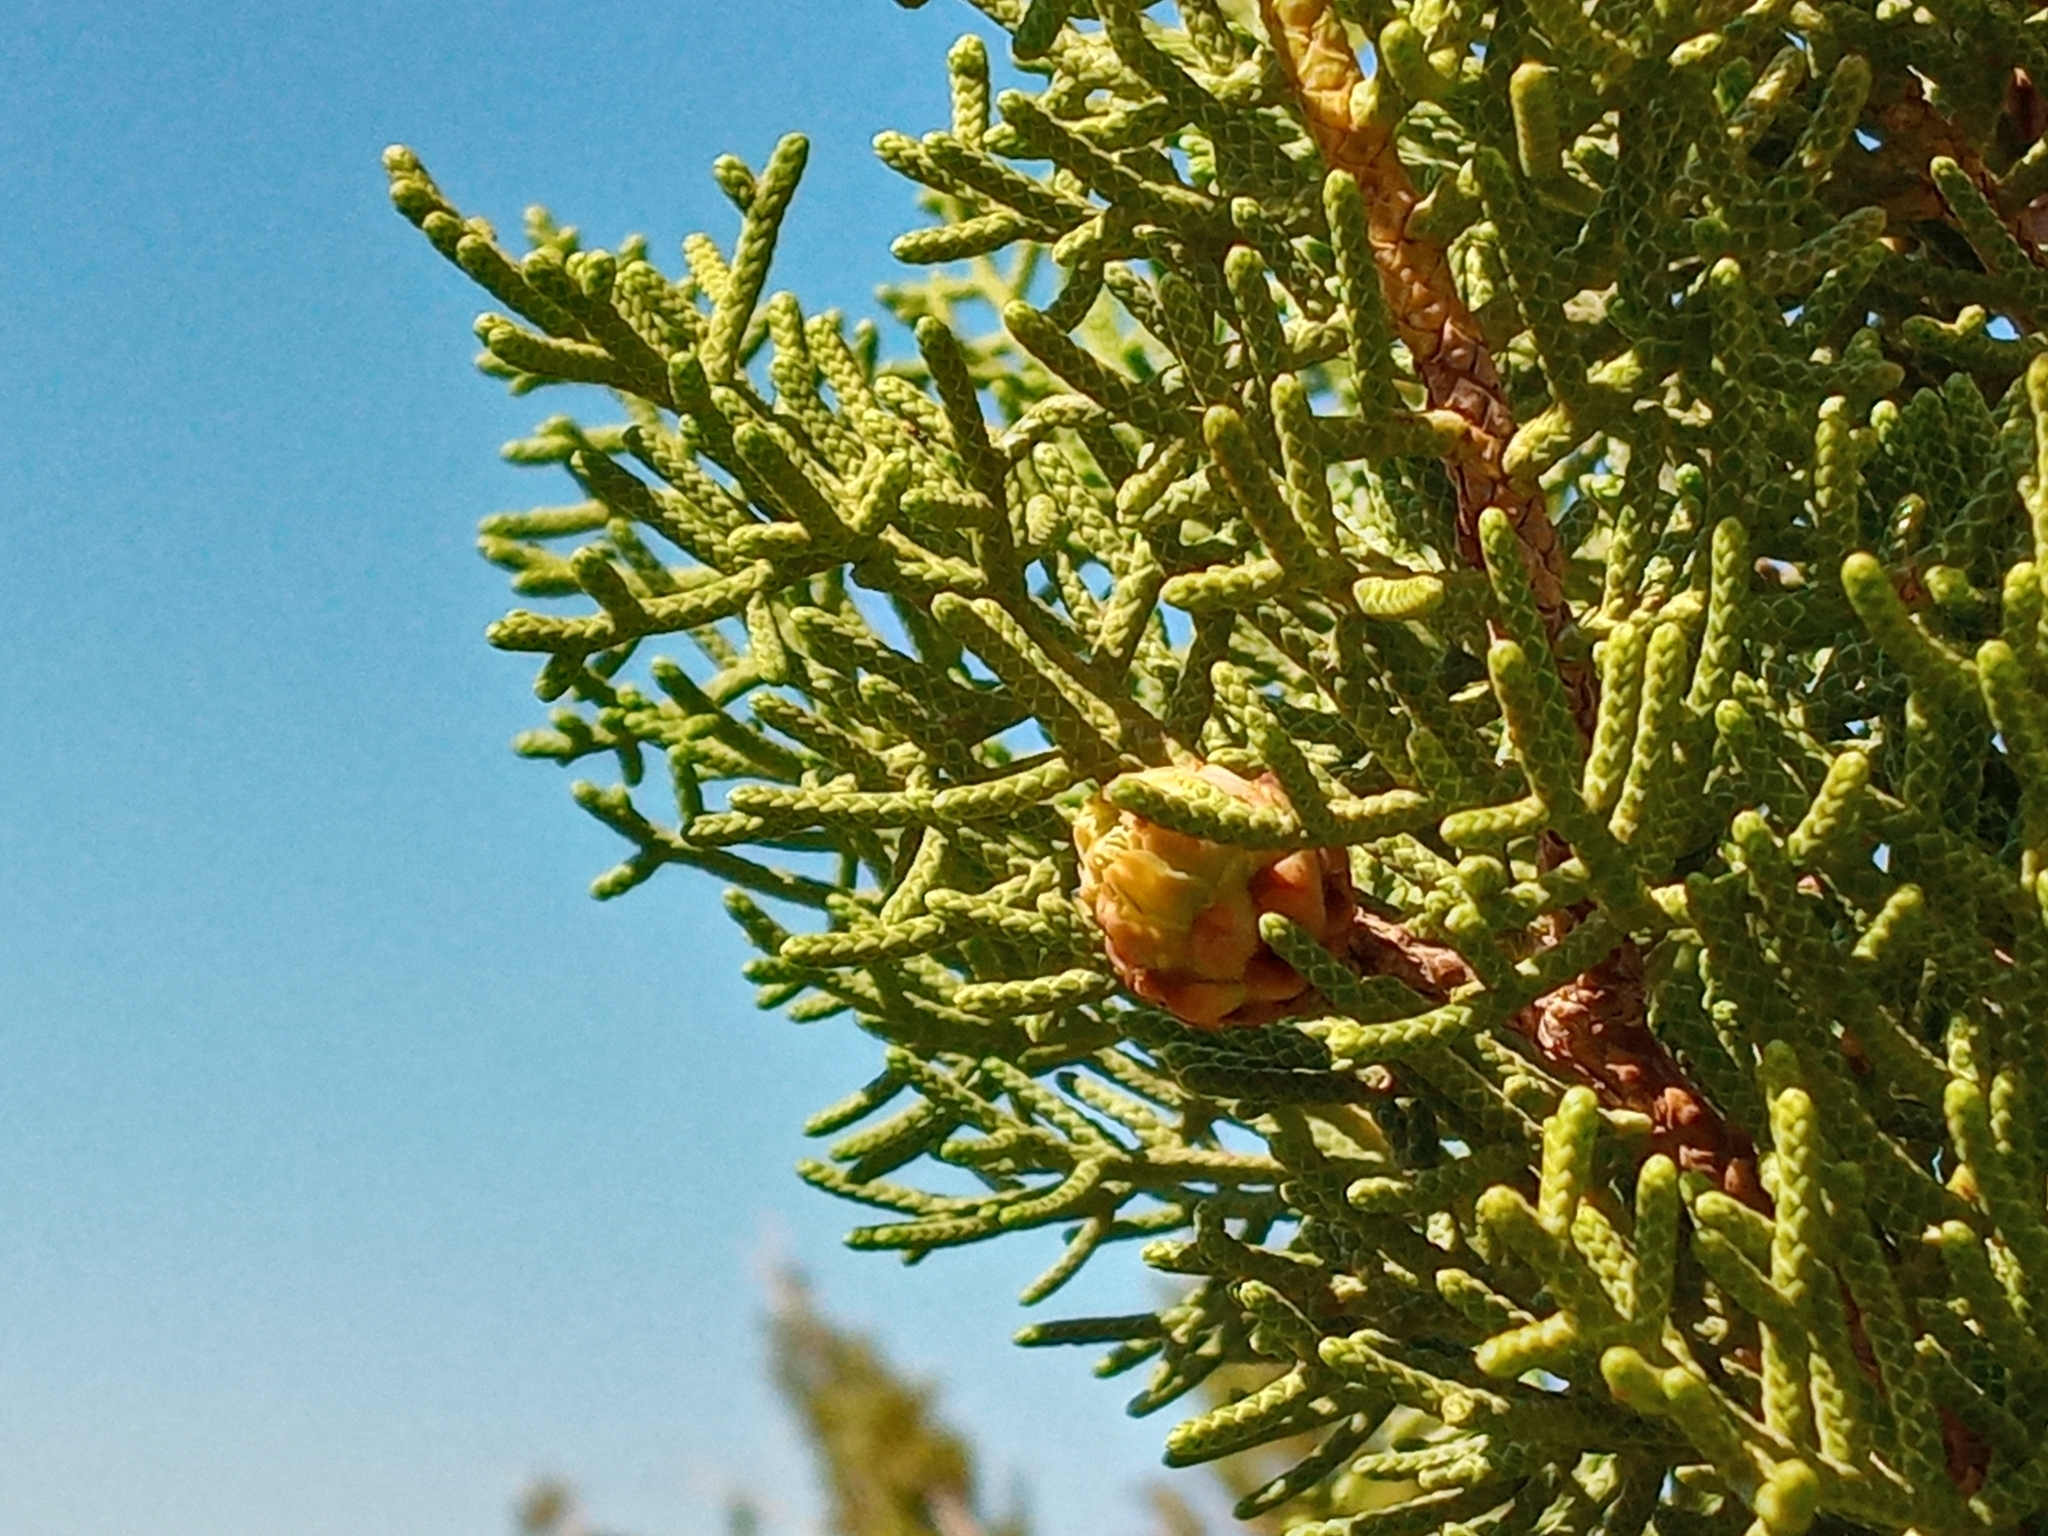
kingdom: Plantae
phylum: Tracheophyta
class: Pinopsida
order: Pinales
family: Cupressaceae
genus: Juniperus
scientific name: Juniperus californica
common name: California juniper
